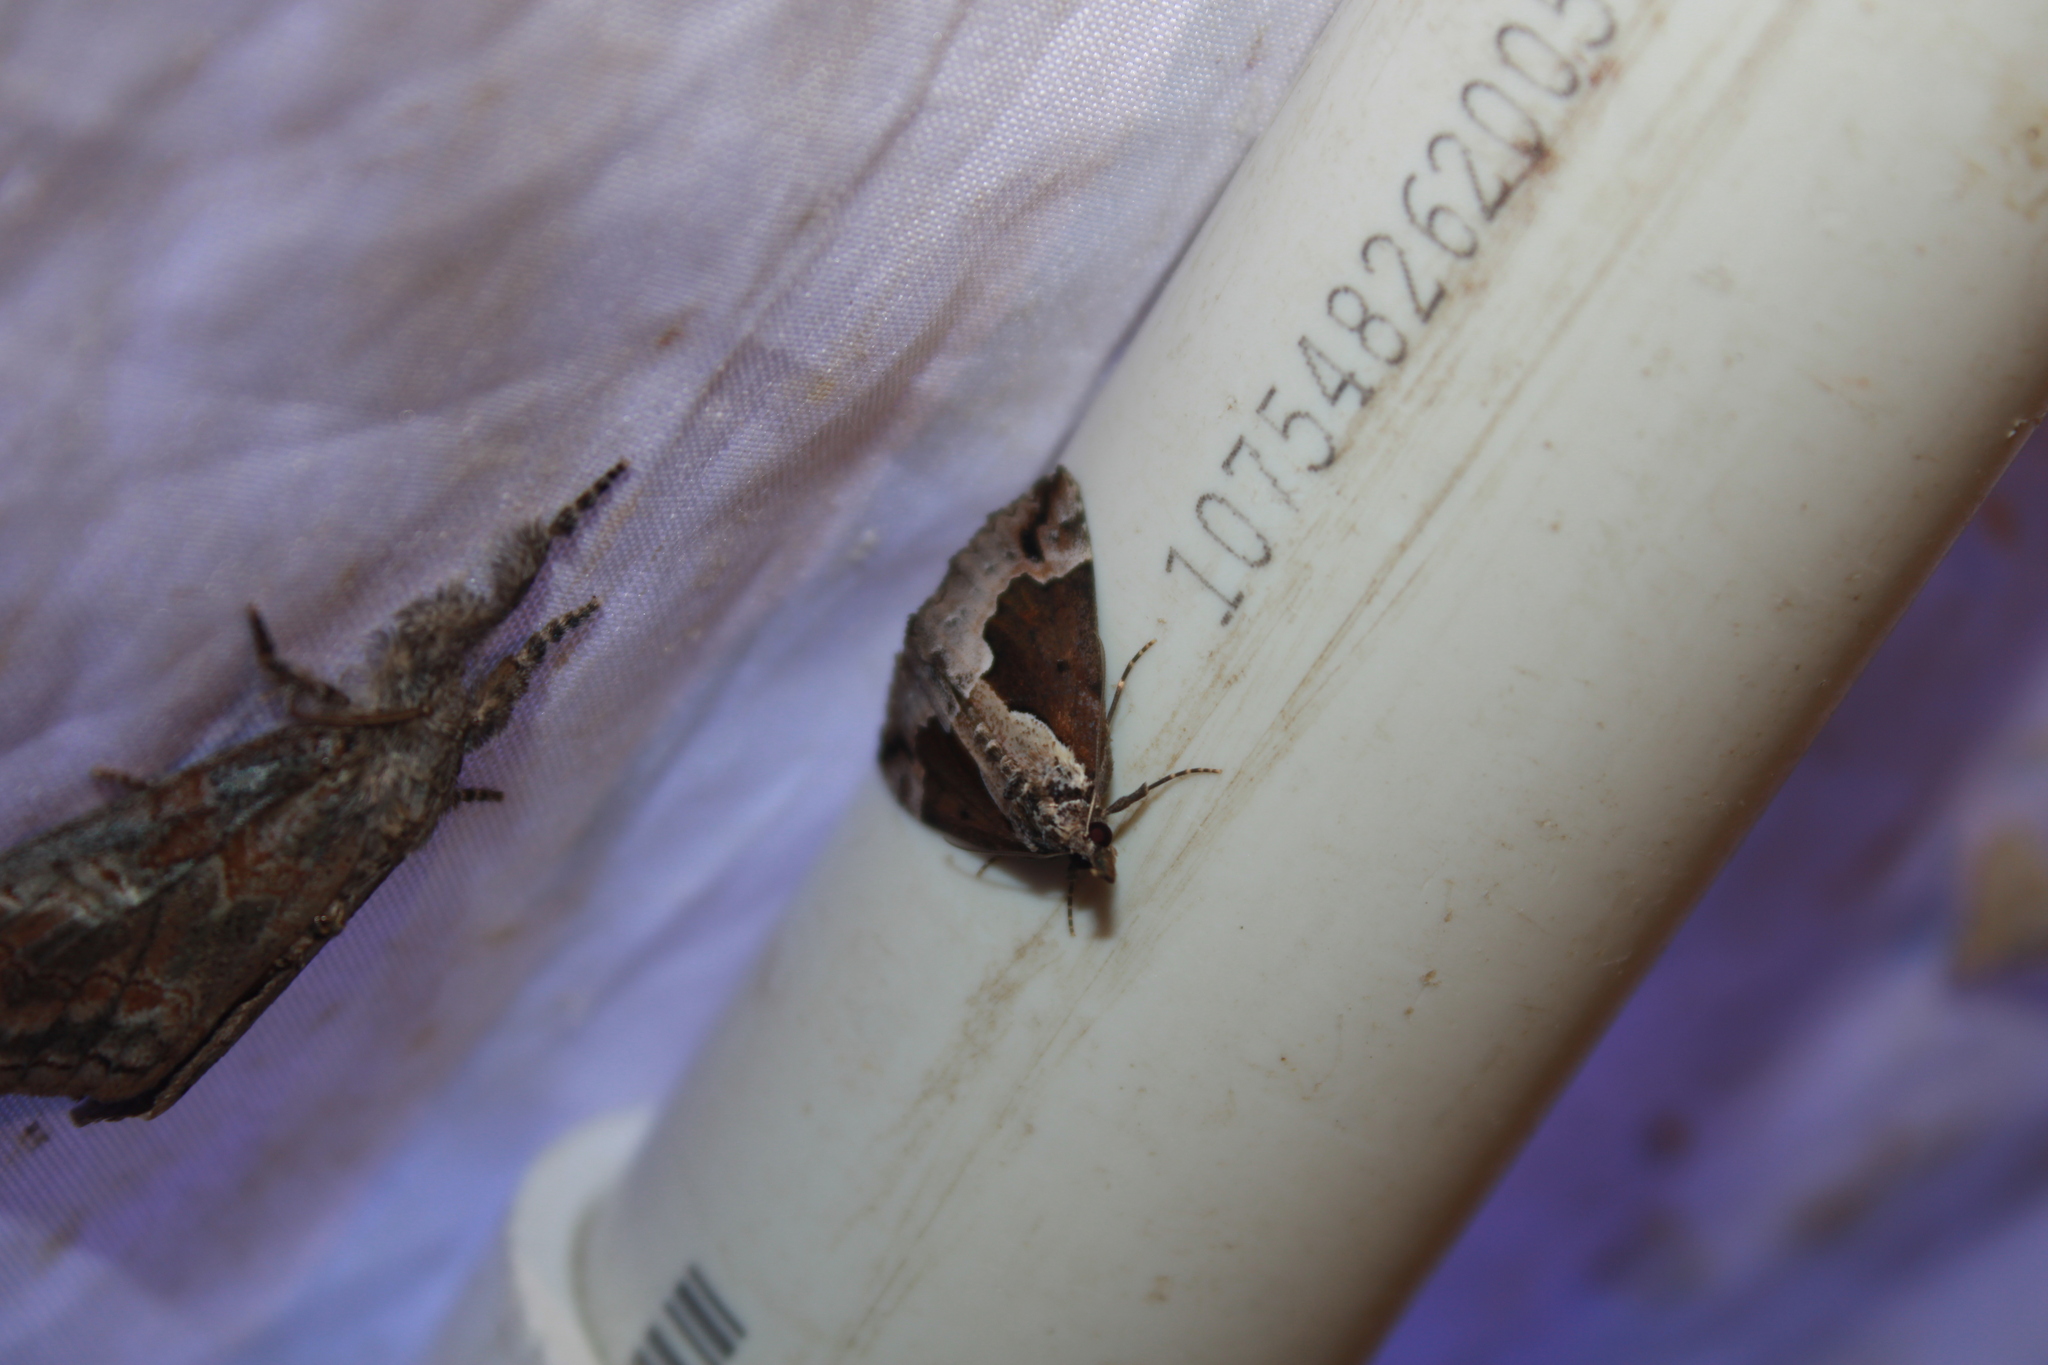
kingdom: Animalia
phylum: Arthropoda
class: Insecta
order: Lepidoptera
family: Erebidae
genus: Hypena
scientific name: Hypena baltimoralis
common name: Baltimore snout
